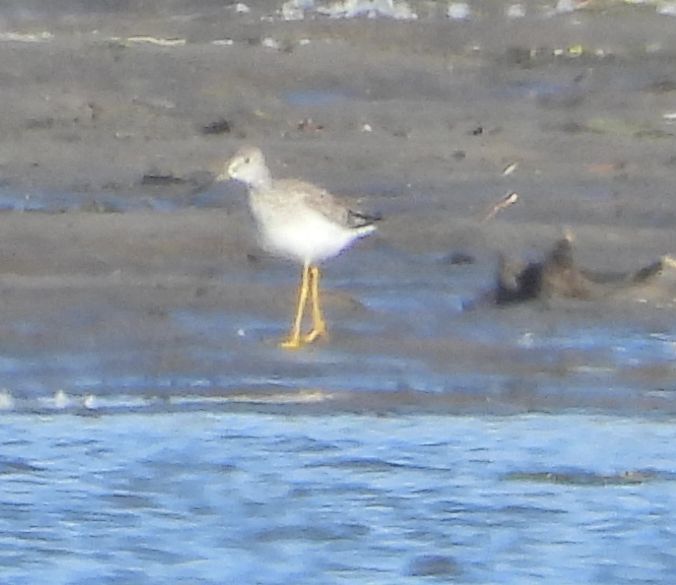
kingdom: Animalia
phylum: Chordata
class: Aves
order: Charadriiformes
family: Scolopacidae
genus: Tringa
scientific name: Tringa
